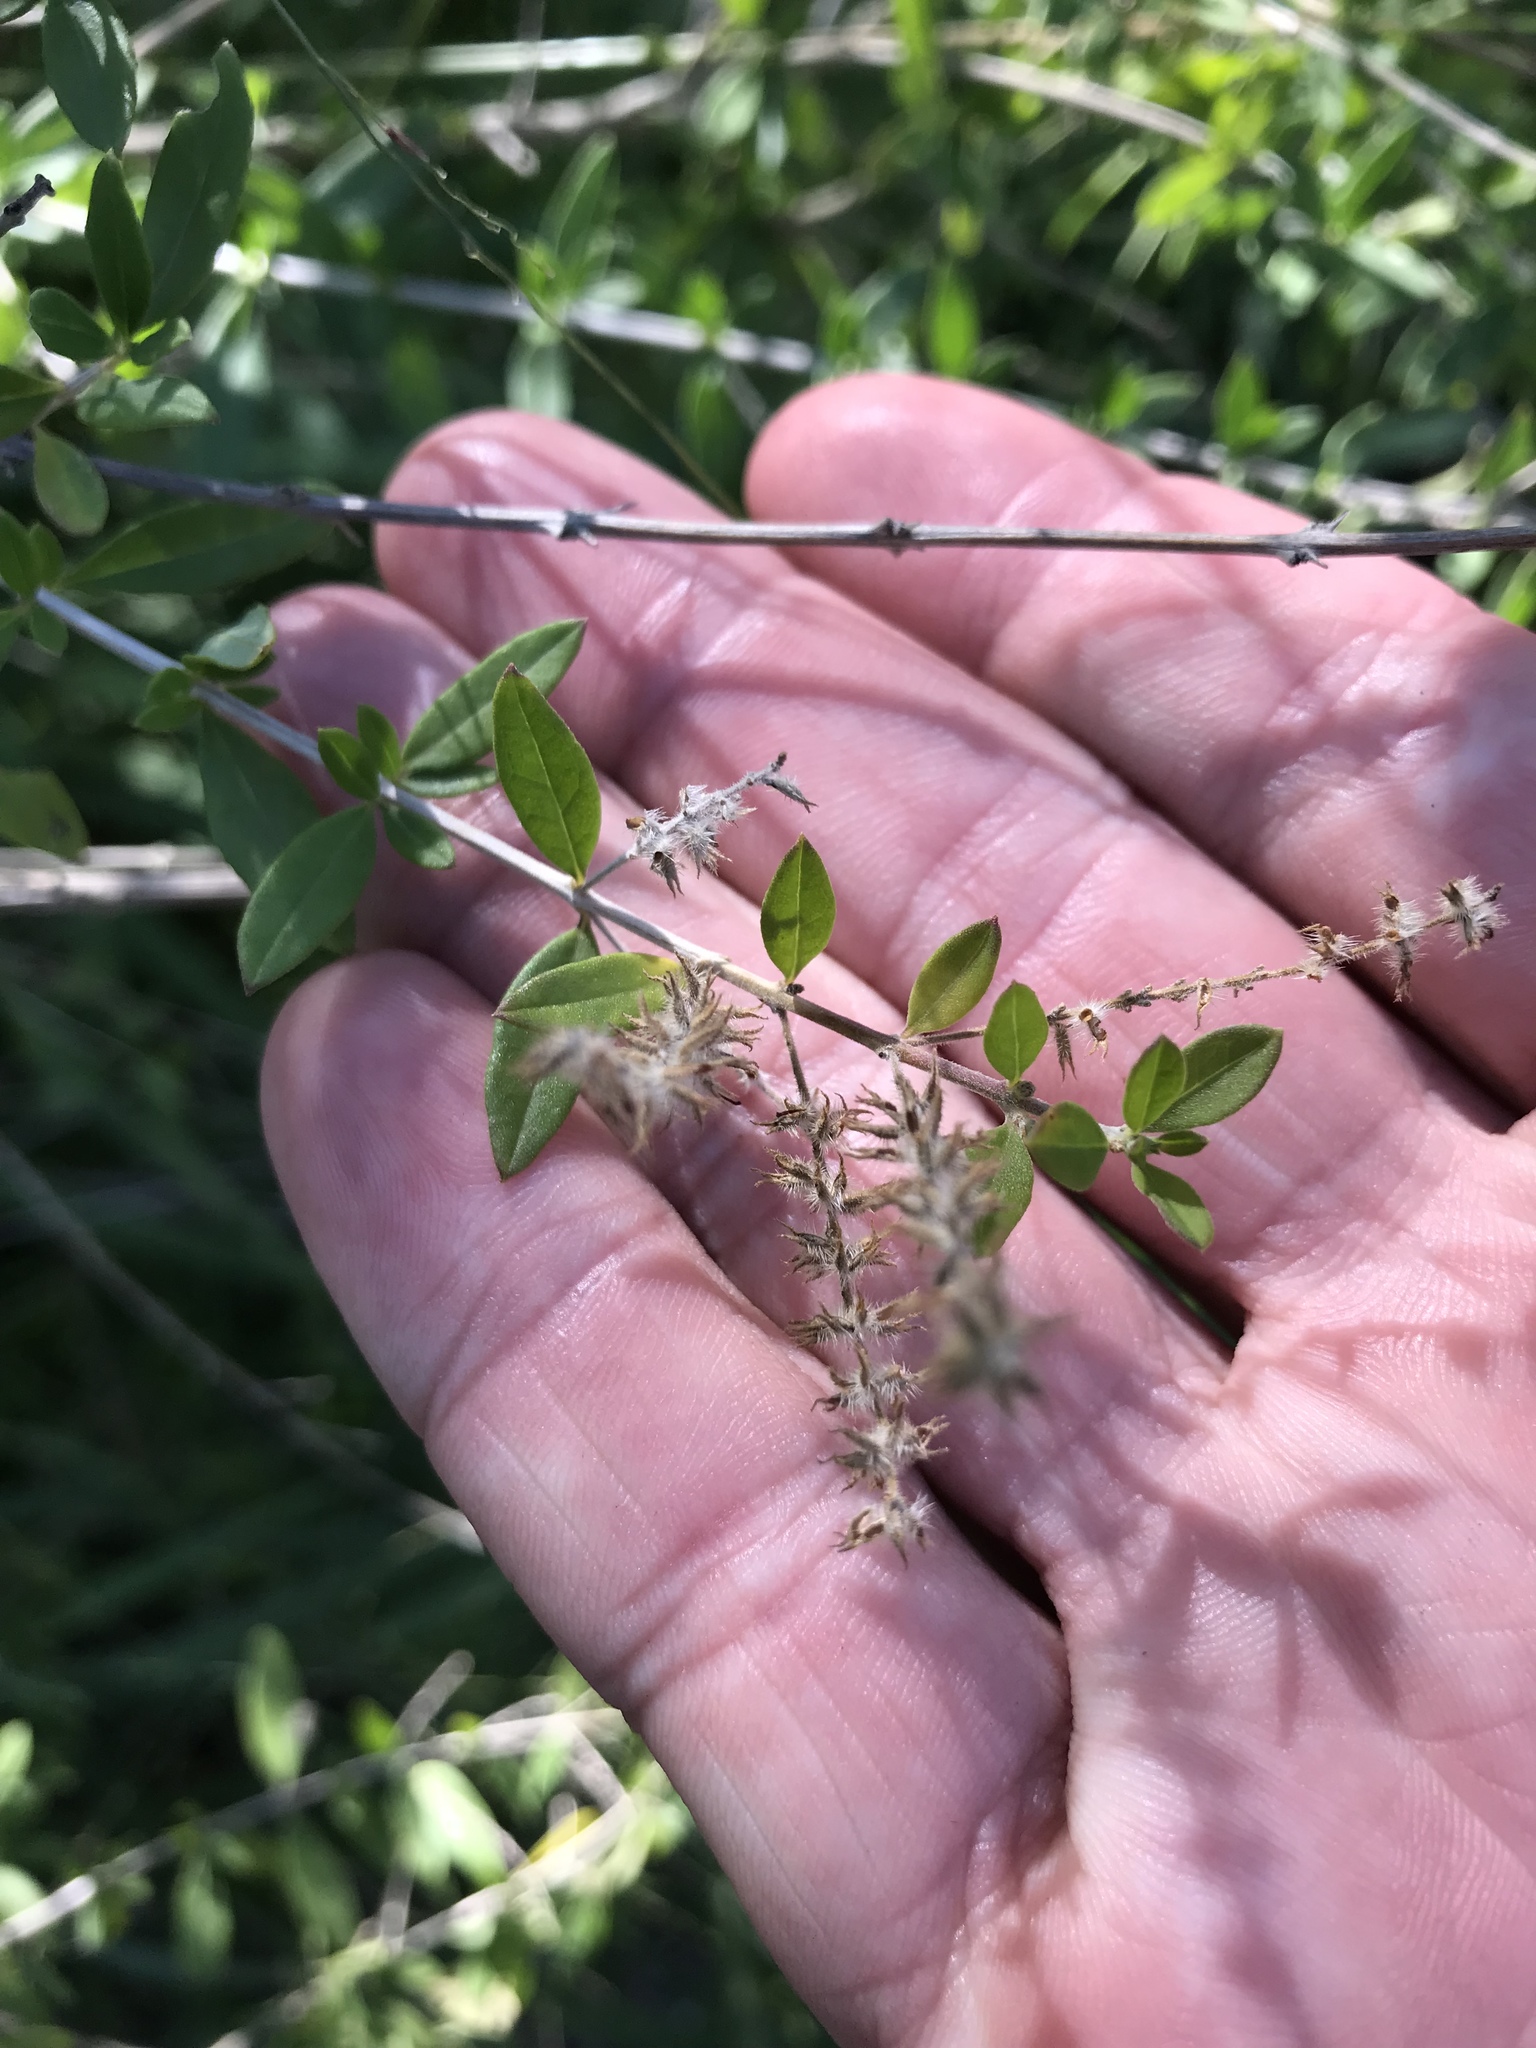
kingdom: Plantae
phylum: Tracheophyta
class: Magnoliopsida
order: Lamiales
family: Verbenaceae
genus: Aloysia
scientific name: Aloysia gratissima
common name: Common bee-brush
